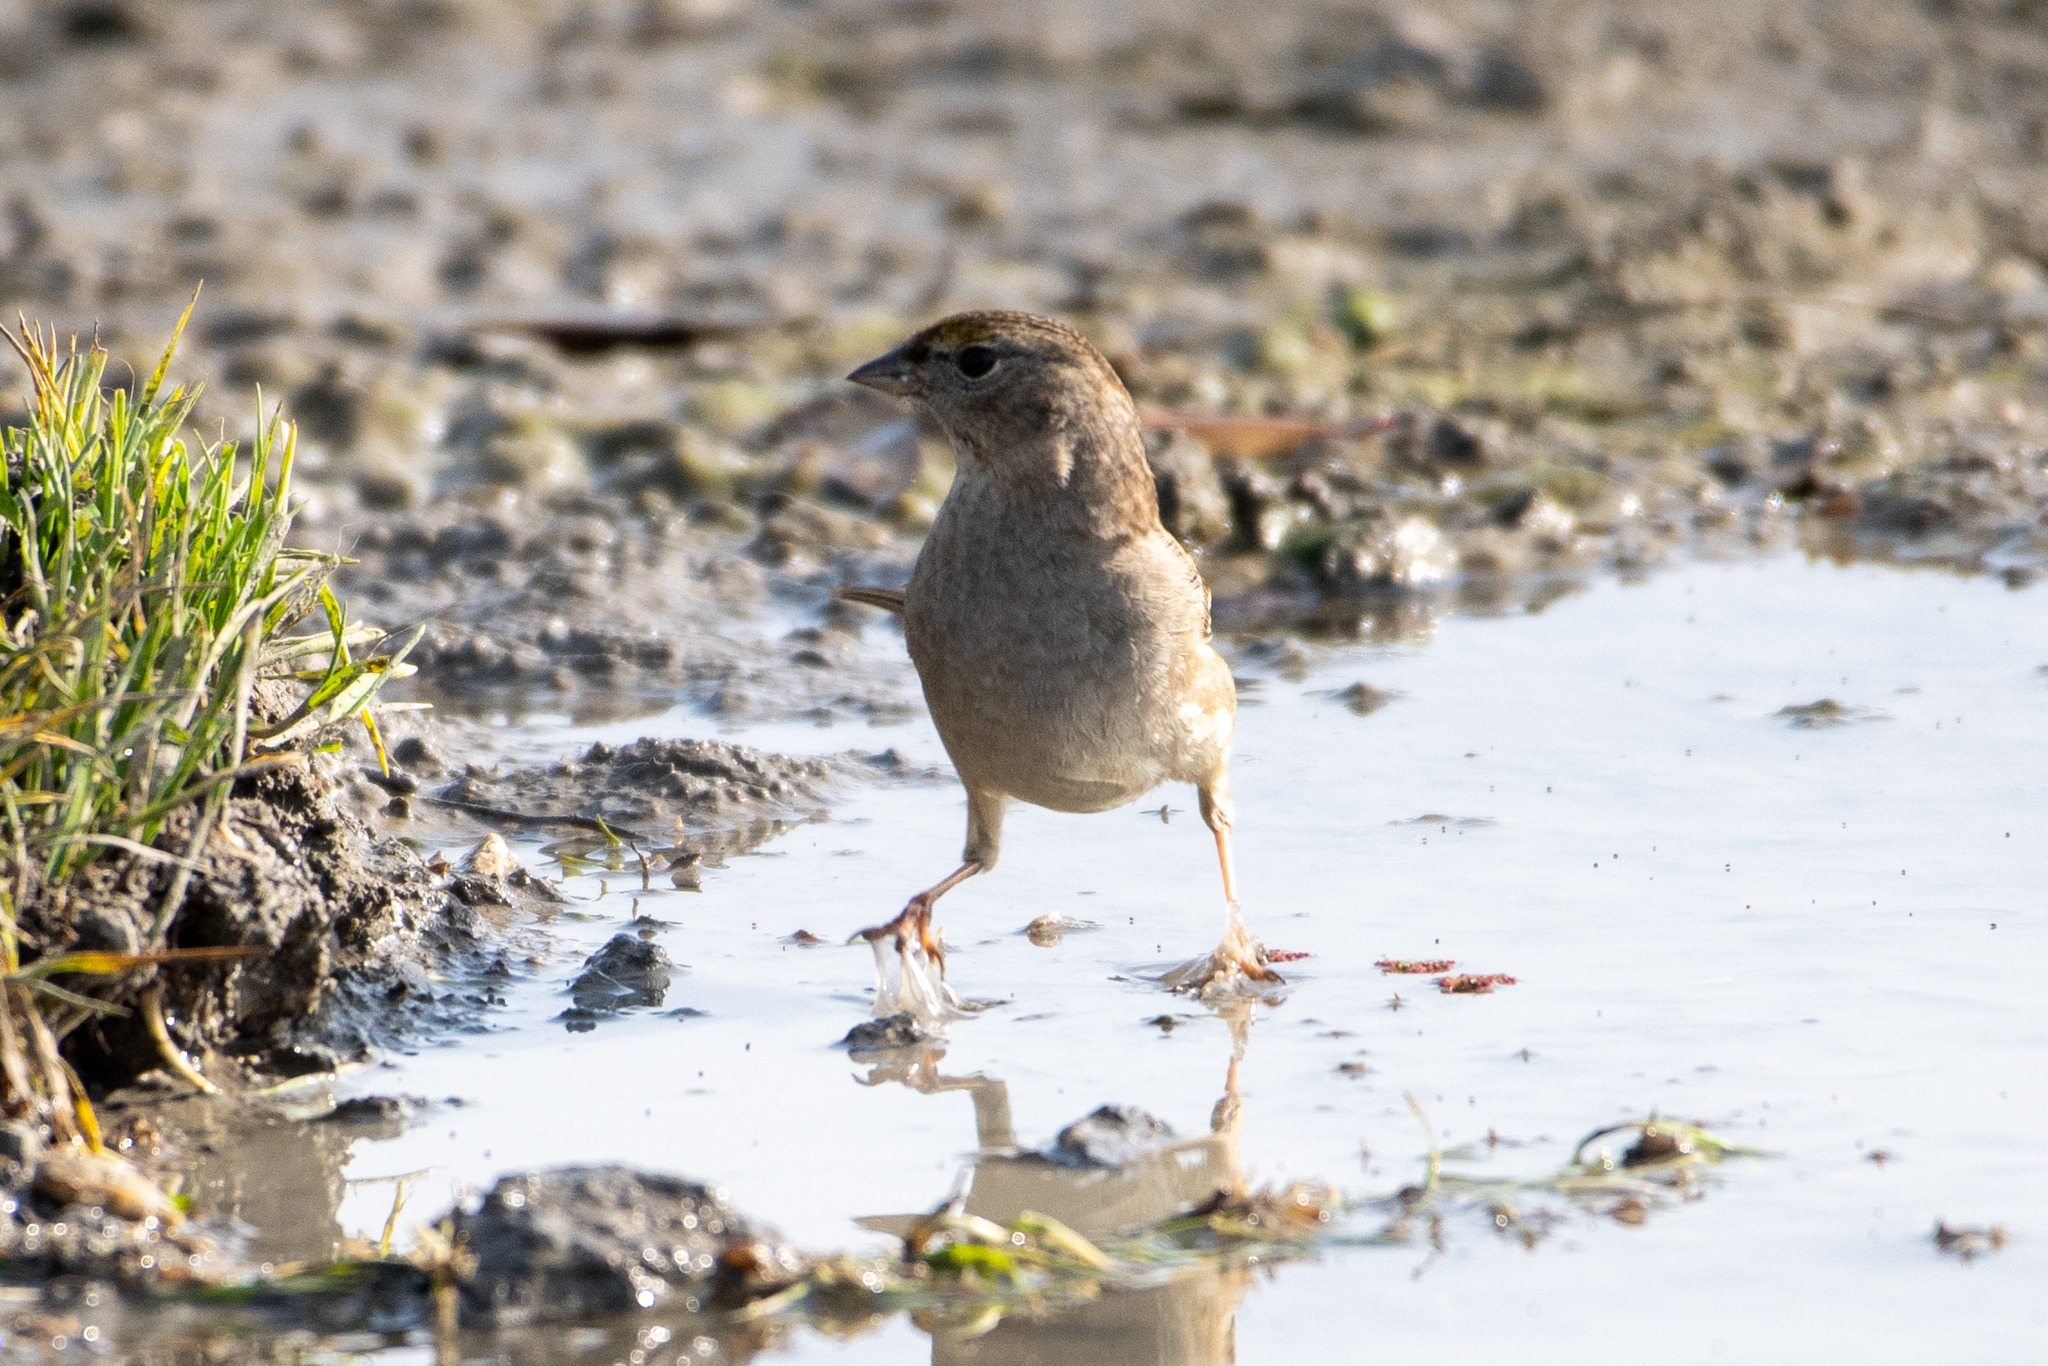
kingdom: Animalia
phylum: Chordata
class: Aves
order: Passeriformes
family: Passerellidae
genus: Zonotrichia
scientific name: Zonotrichia atricapilla
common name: Golden-crowned sparrow
